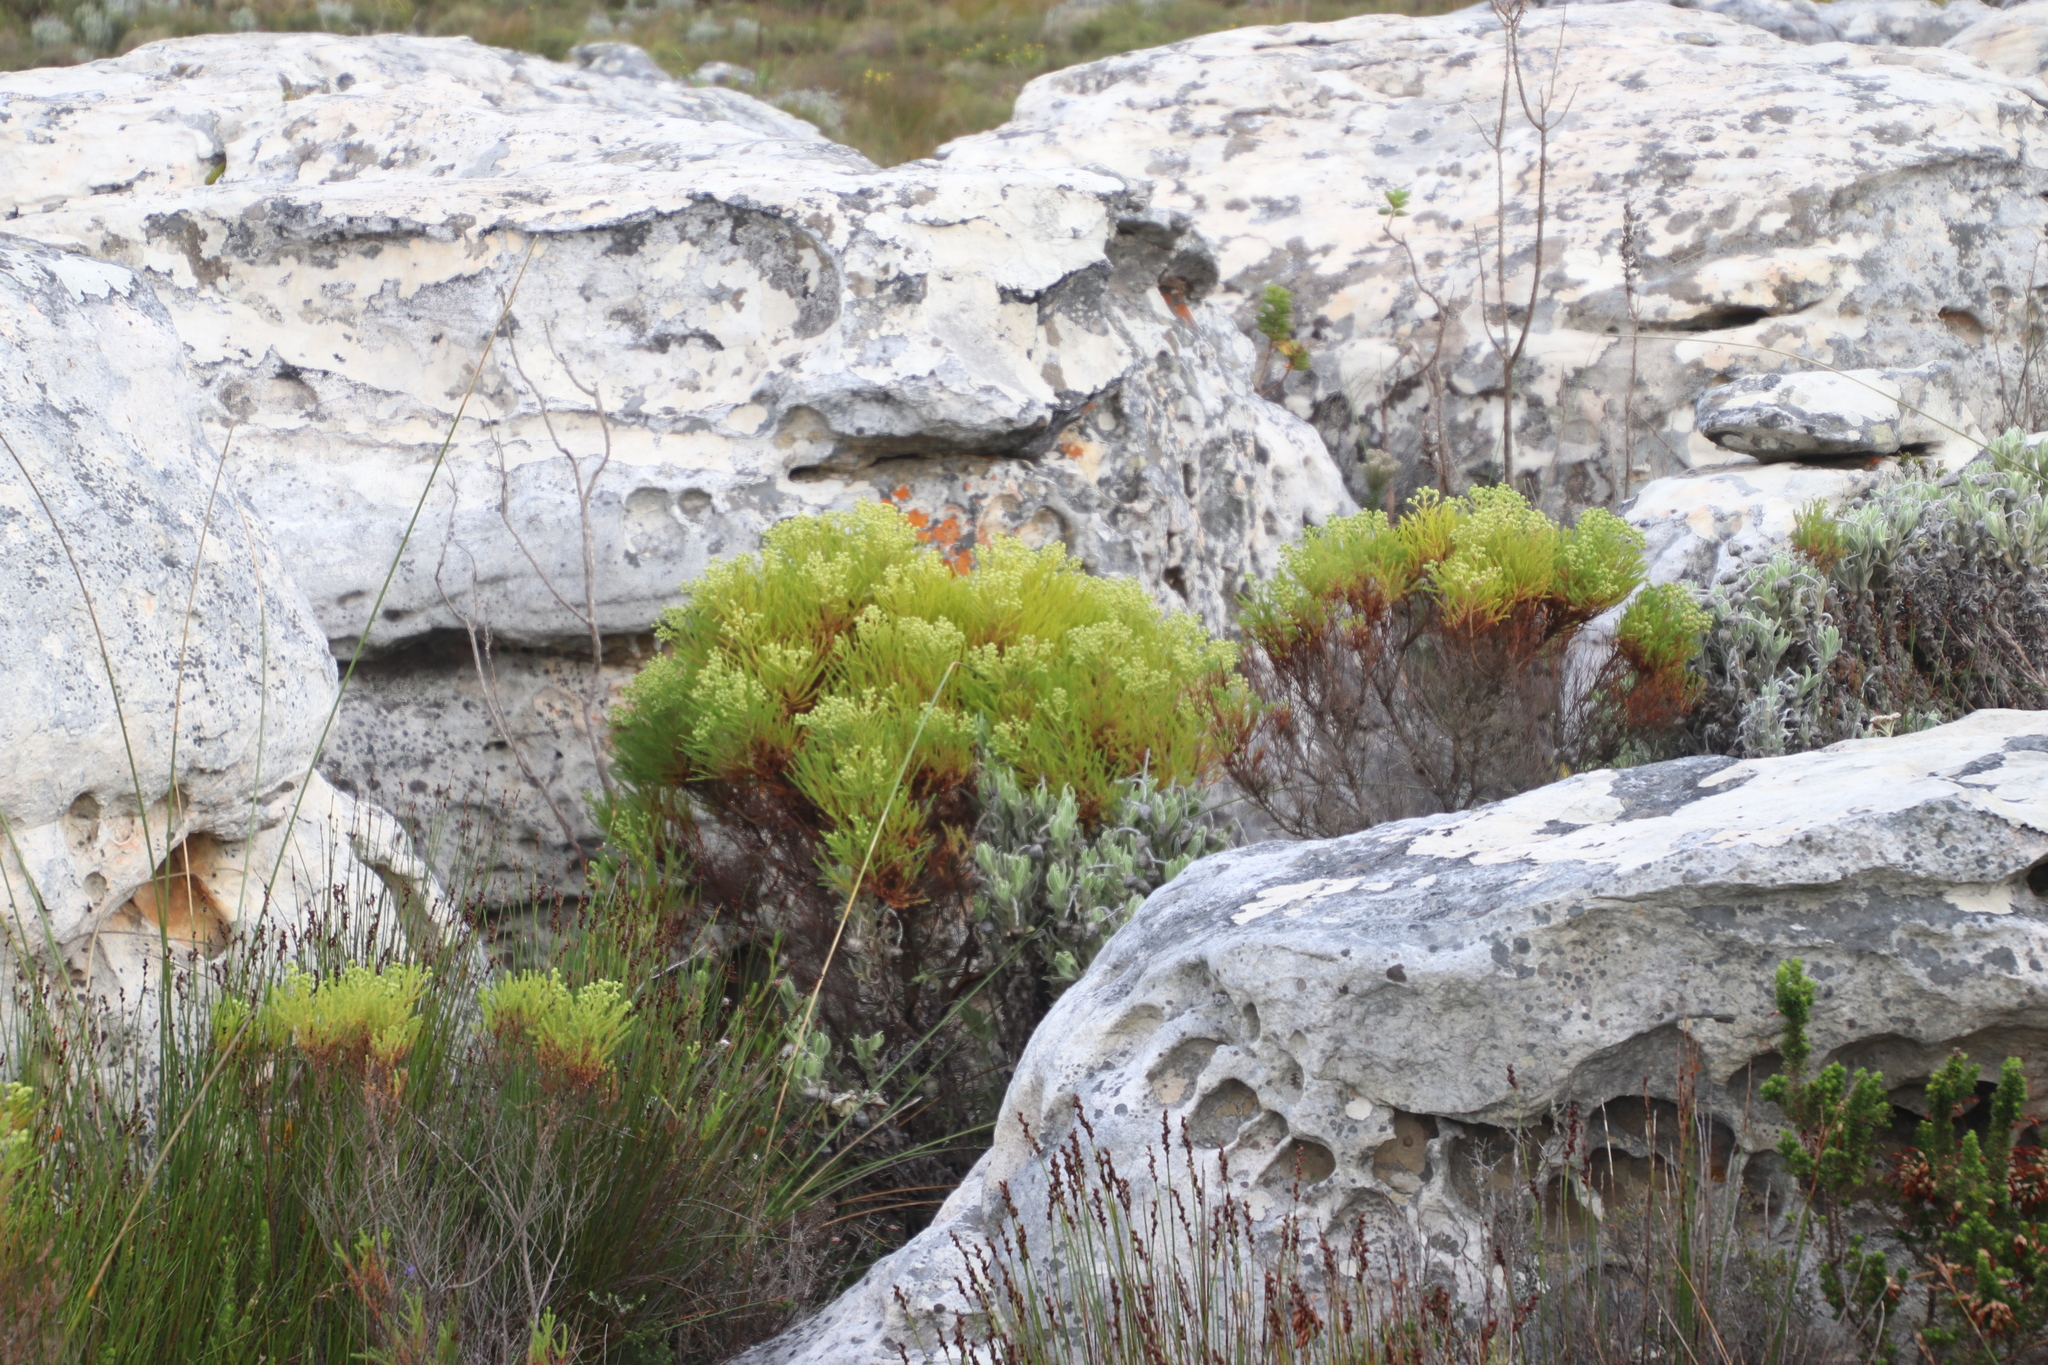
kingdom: Plantae
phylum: Tracheophyta
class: Magnoliopsida
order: Bruniales
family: Bruniaceae
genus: Berzelia
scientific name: Berzelia lanuginosa
